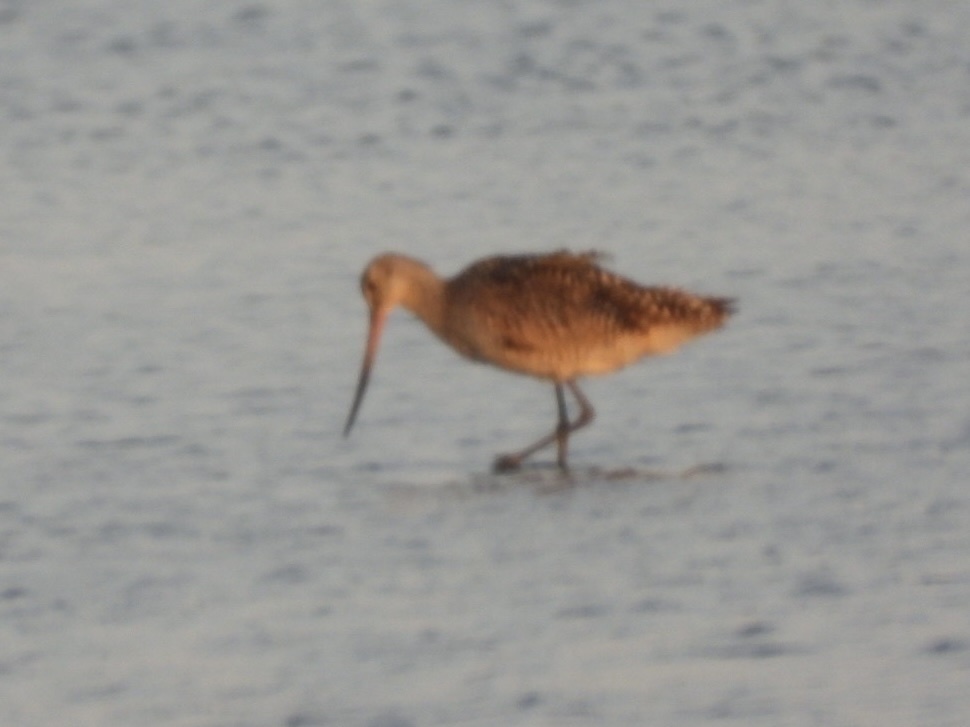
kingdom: Animalia
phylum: Chordata
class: Aves
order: Charadriiformes
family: Scolopacidae
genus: Limosa
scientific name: Limosa fedoa
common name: Marbled godwit
